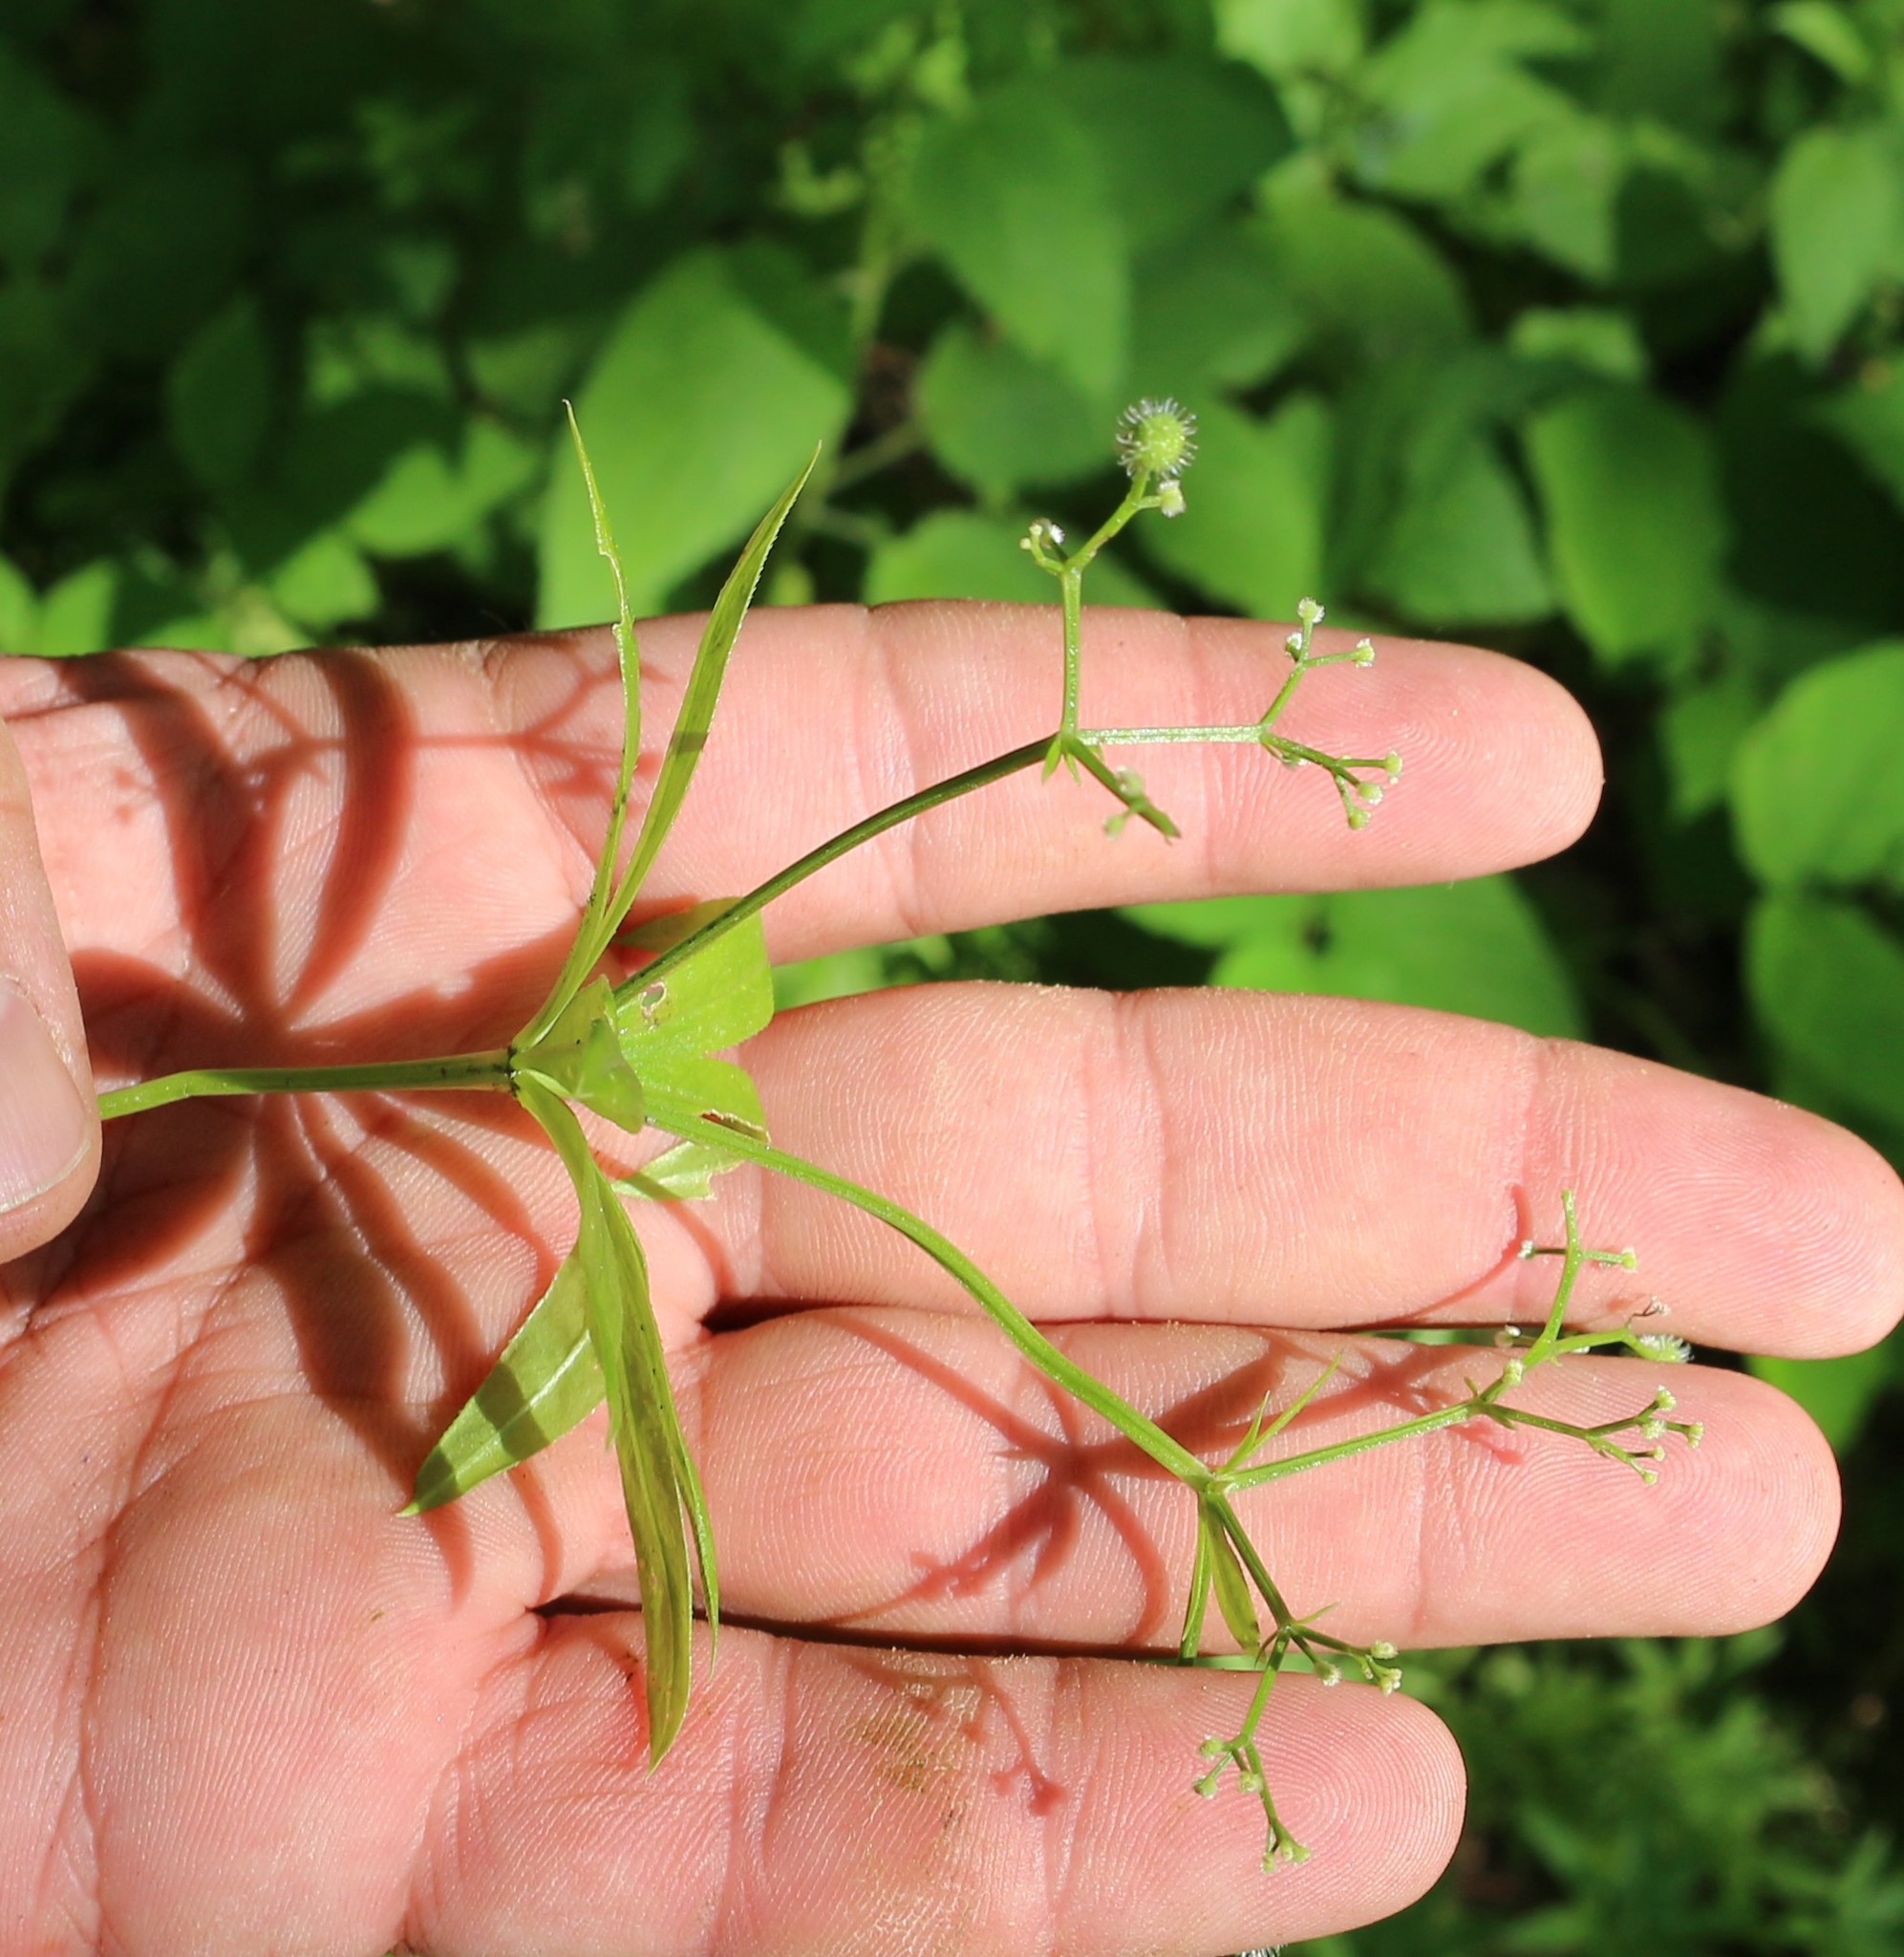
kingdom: Plantae
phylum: Tracheophyta
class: Magnoliopsida
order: Gentianales
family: Rubiaceae
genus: Galium
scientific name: Galium odoratum
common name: Sweet woodruff
